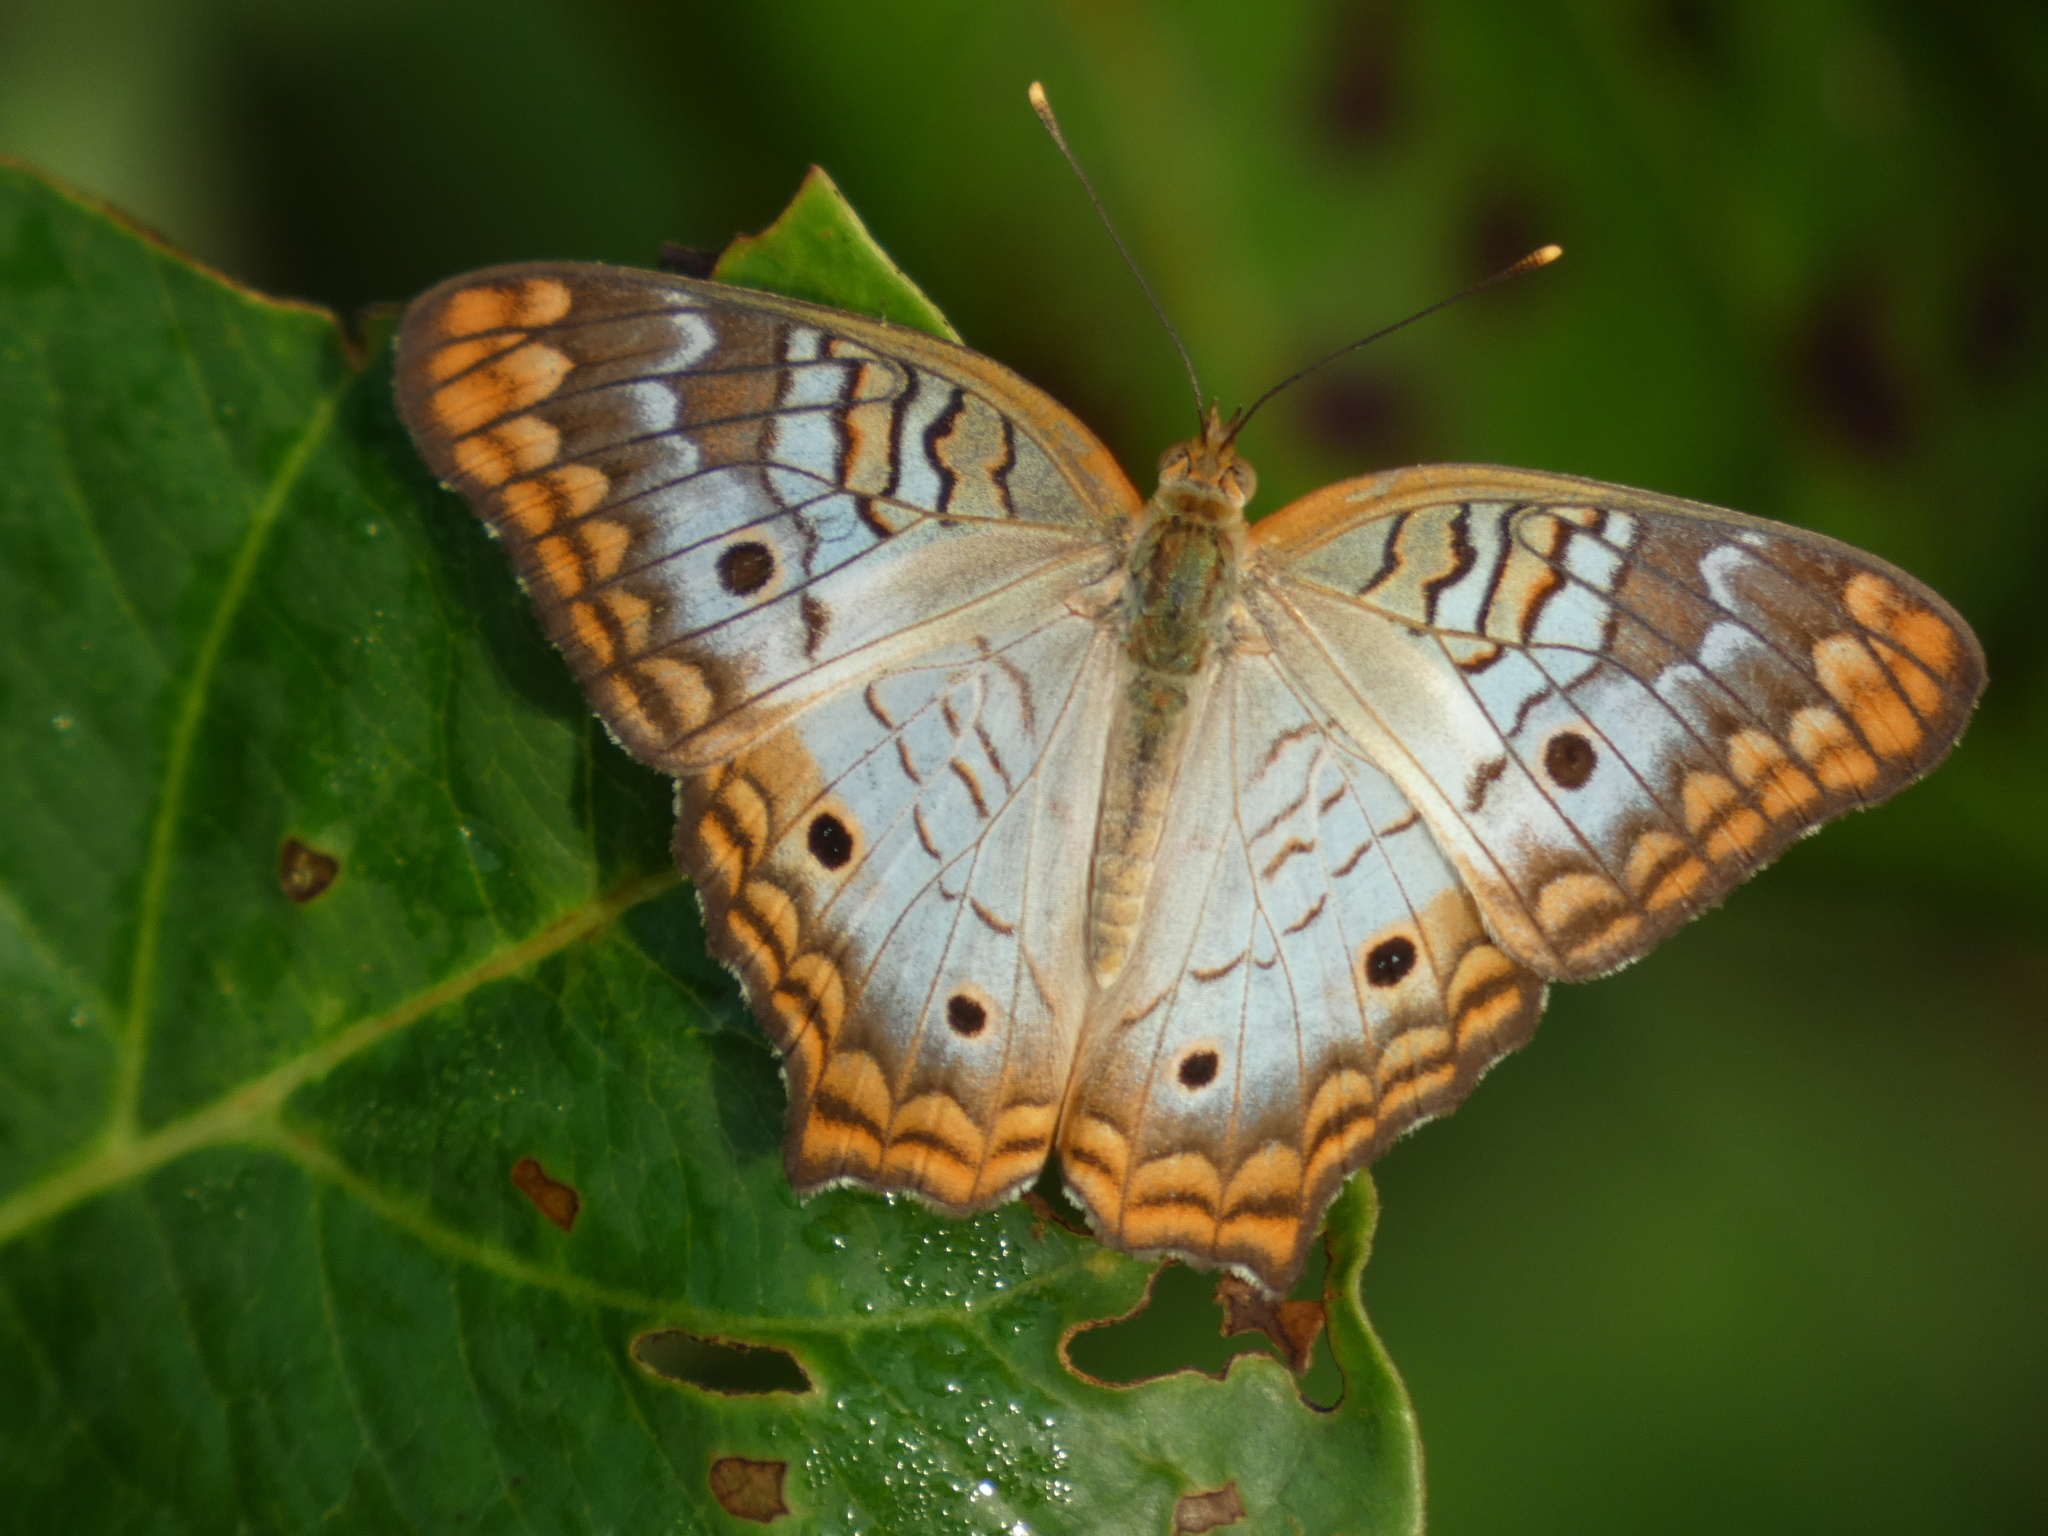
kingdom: Animalia
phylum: Arthropoda
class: Insecta
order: Lepidoptera
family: Nymphalidae
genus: Anartia
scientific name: Anartia jatrophae
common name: White peacock
